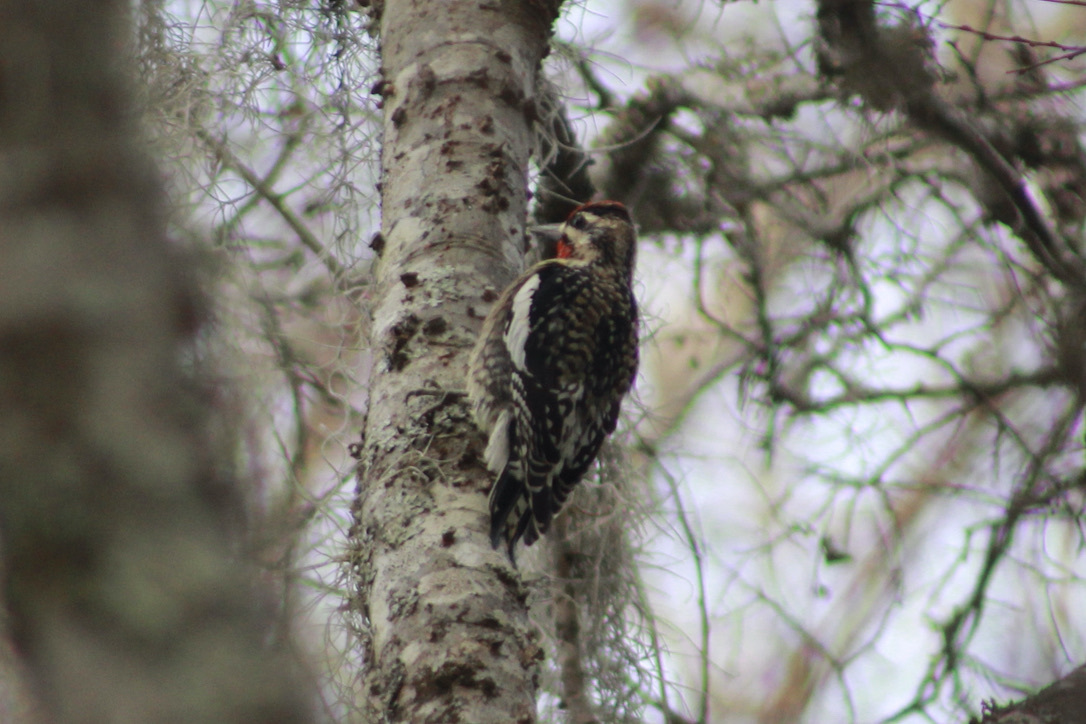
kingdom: Animalia
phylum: Chordata
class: Aves
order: Piciformes
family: Picidae
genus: Sphyrapicus
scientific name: Sphyrapicus varius
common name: Yellow-bellied sapsucker
